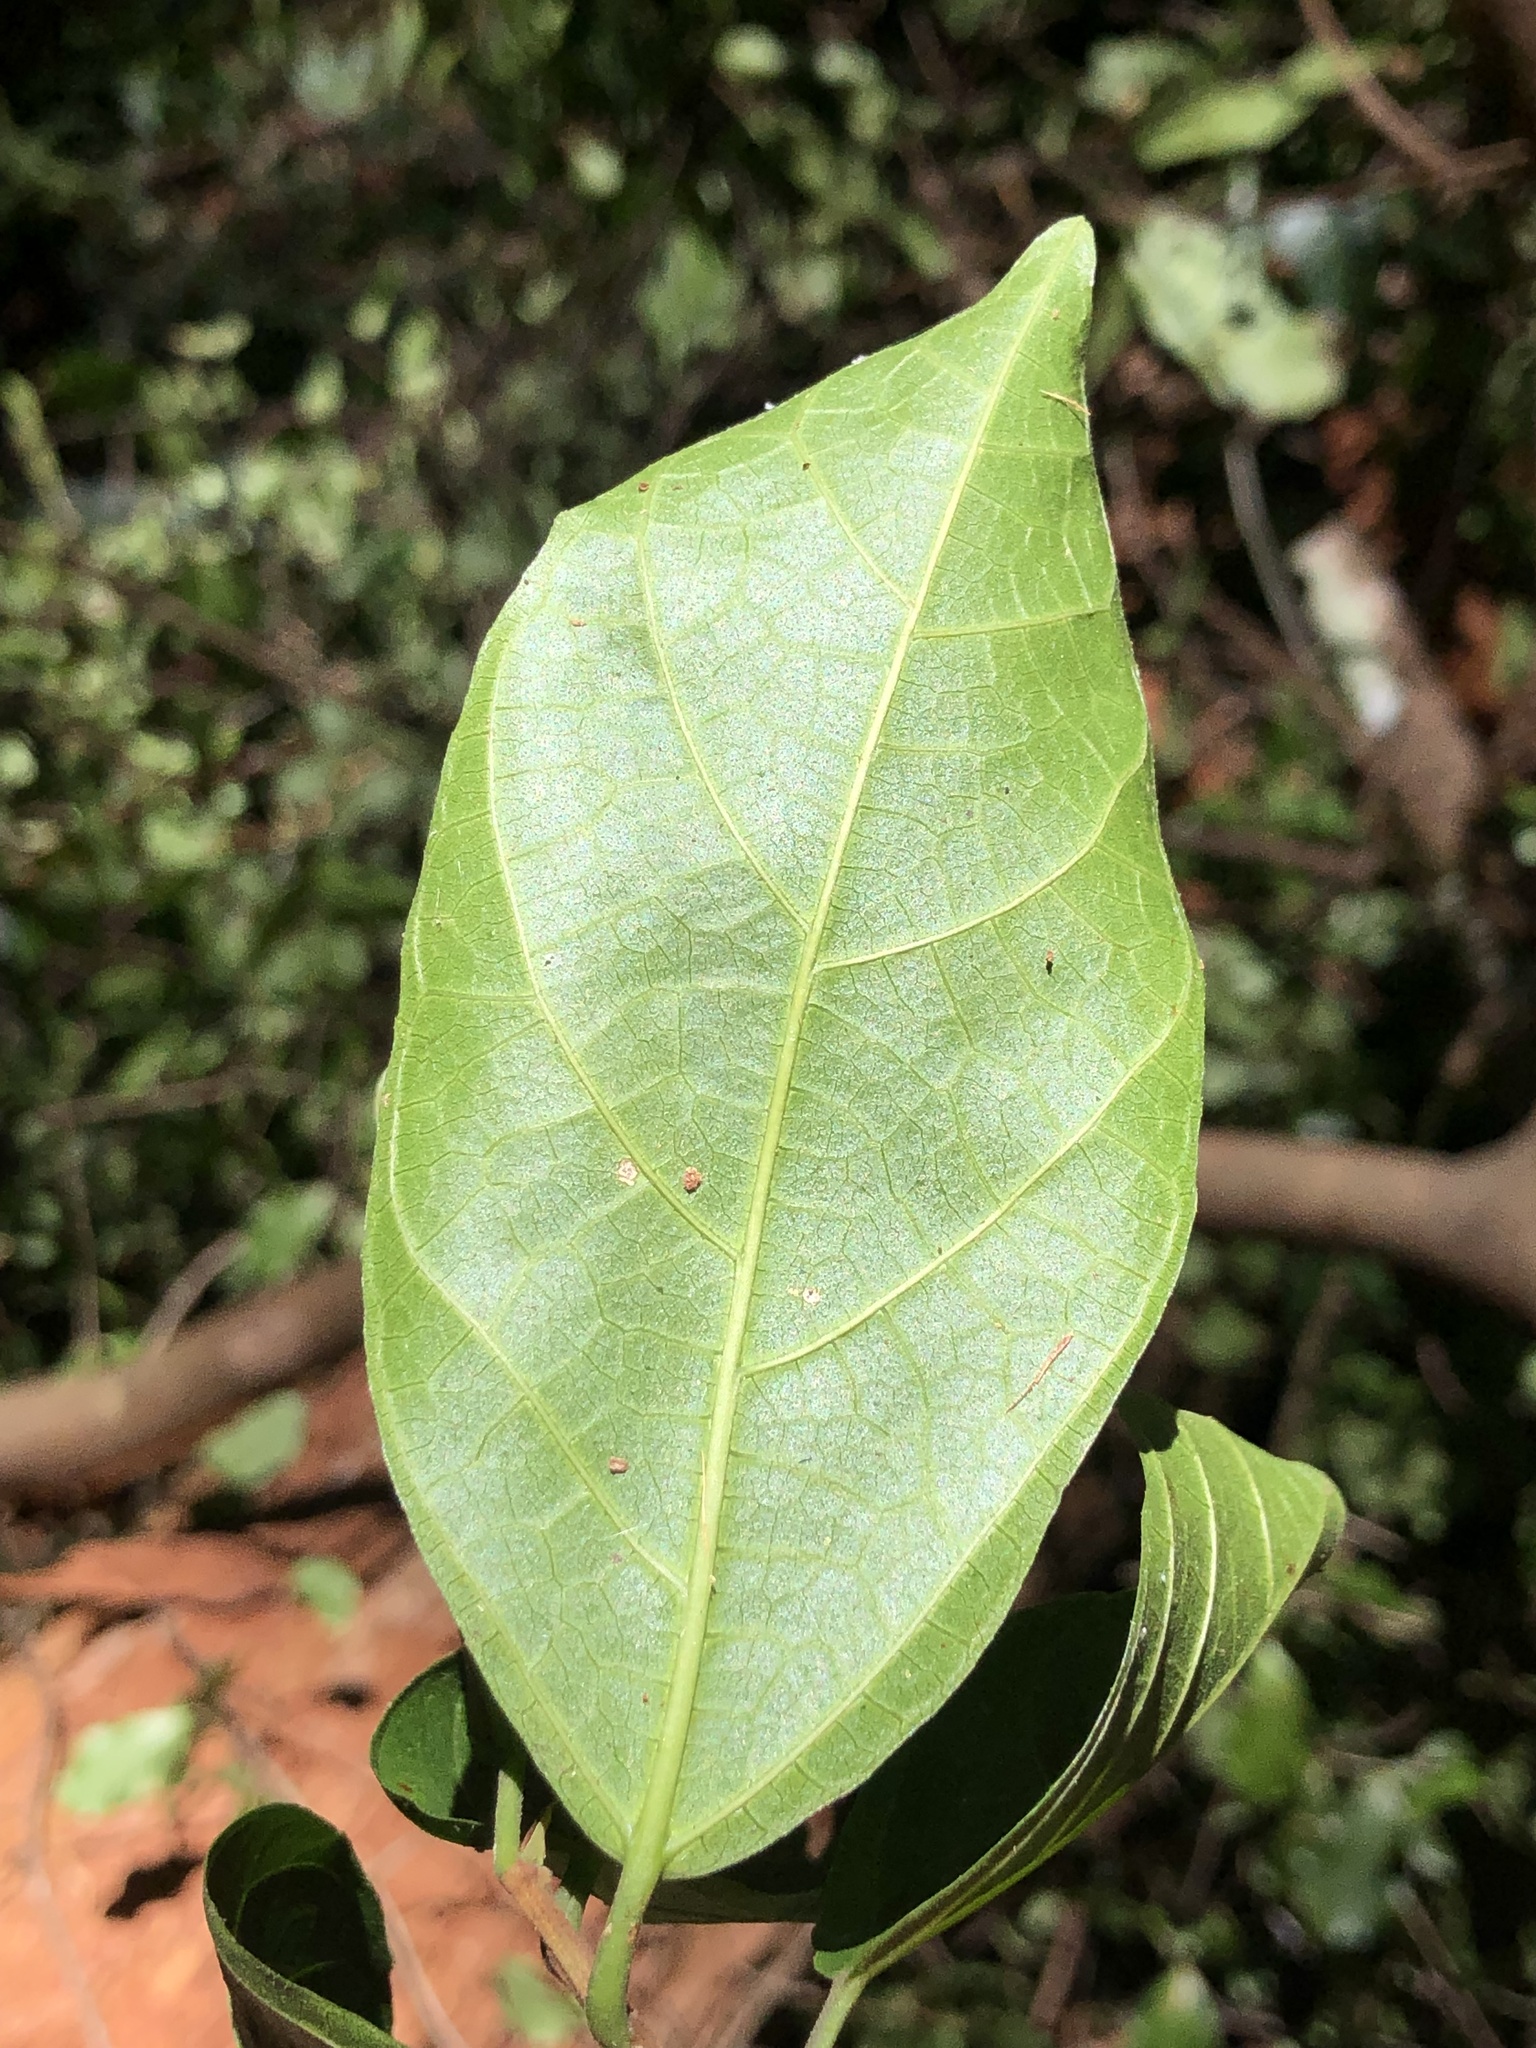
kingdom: Plantae
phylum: Tracheophyta
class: Magnoliopsida
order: Rosales
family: Moraceae
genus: Ficus
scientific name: Ficus fraseri
